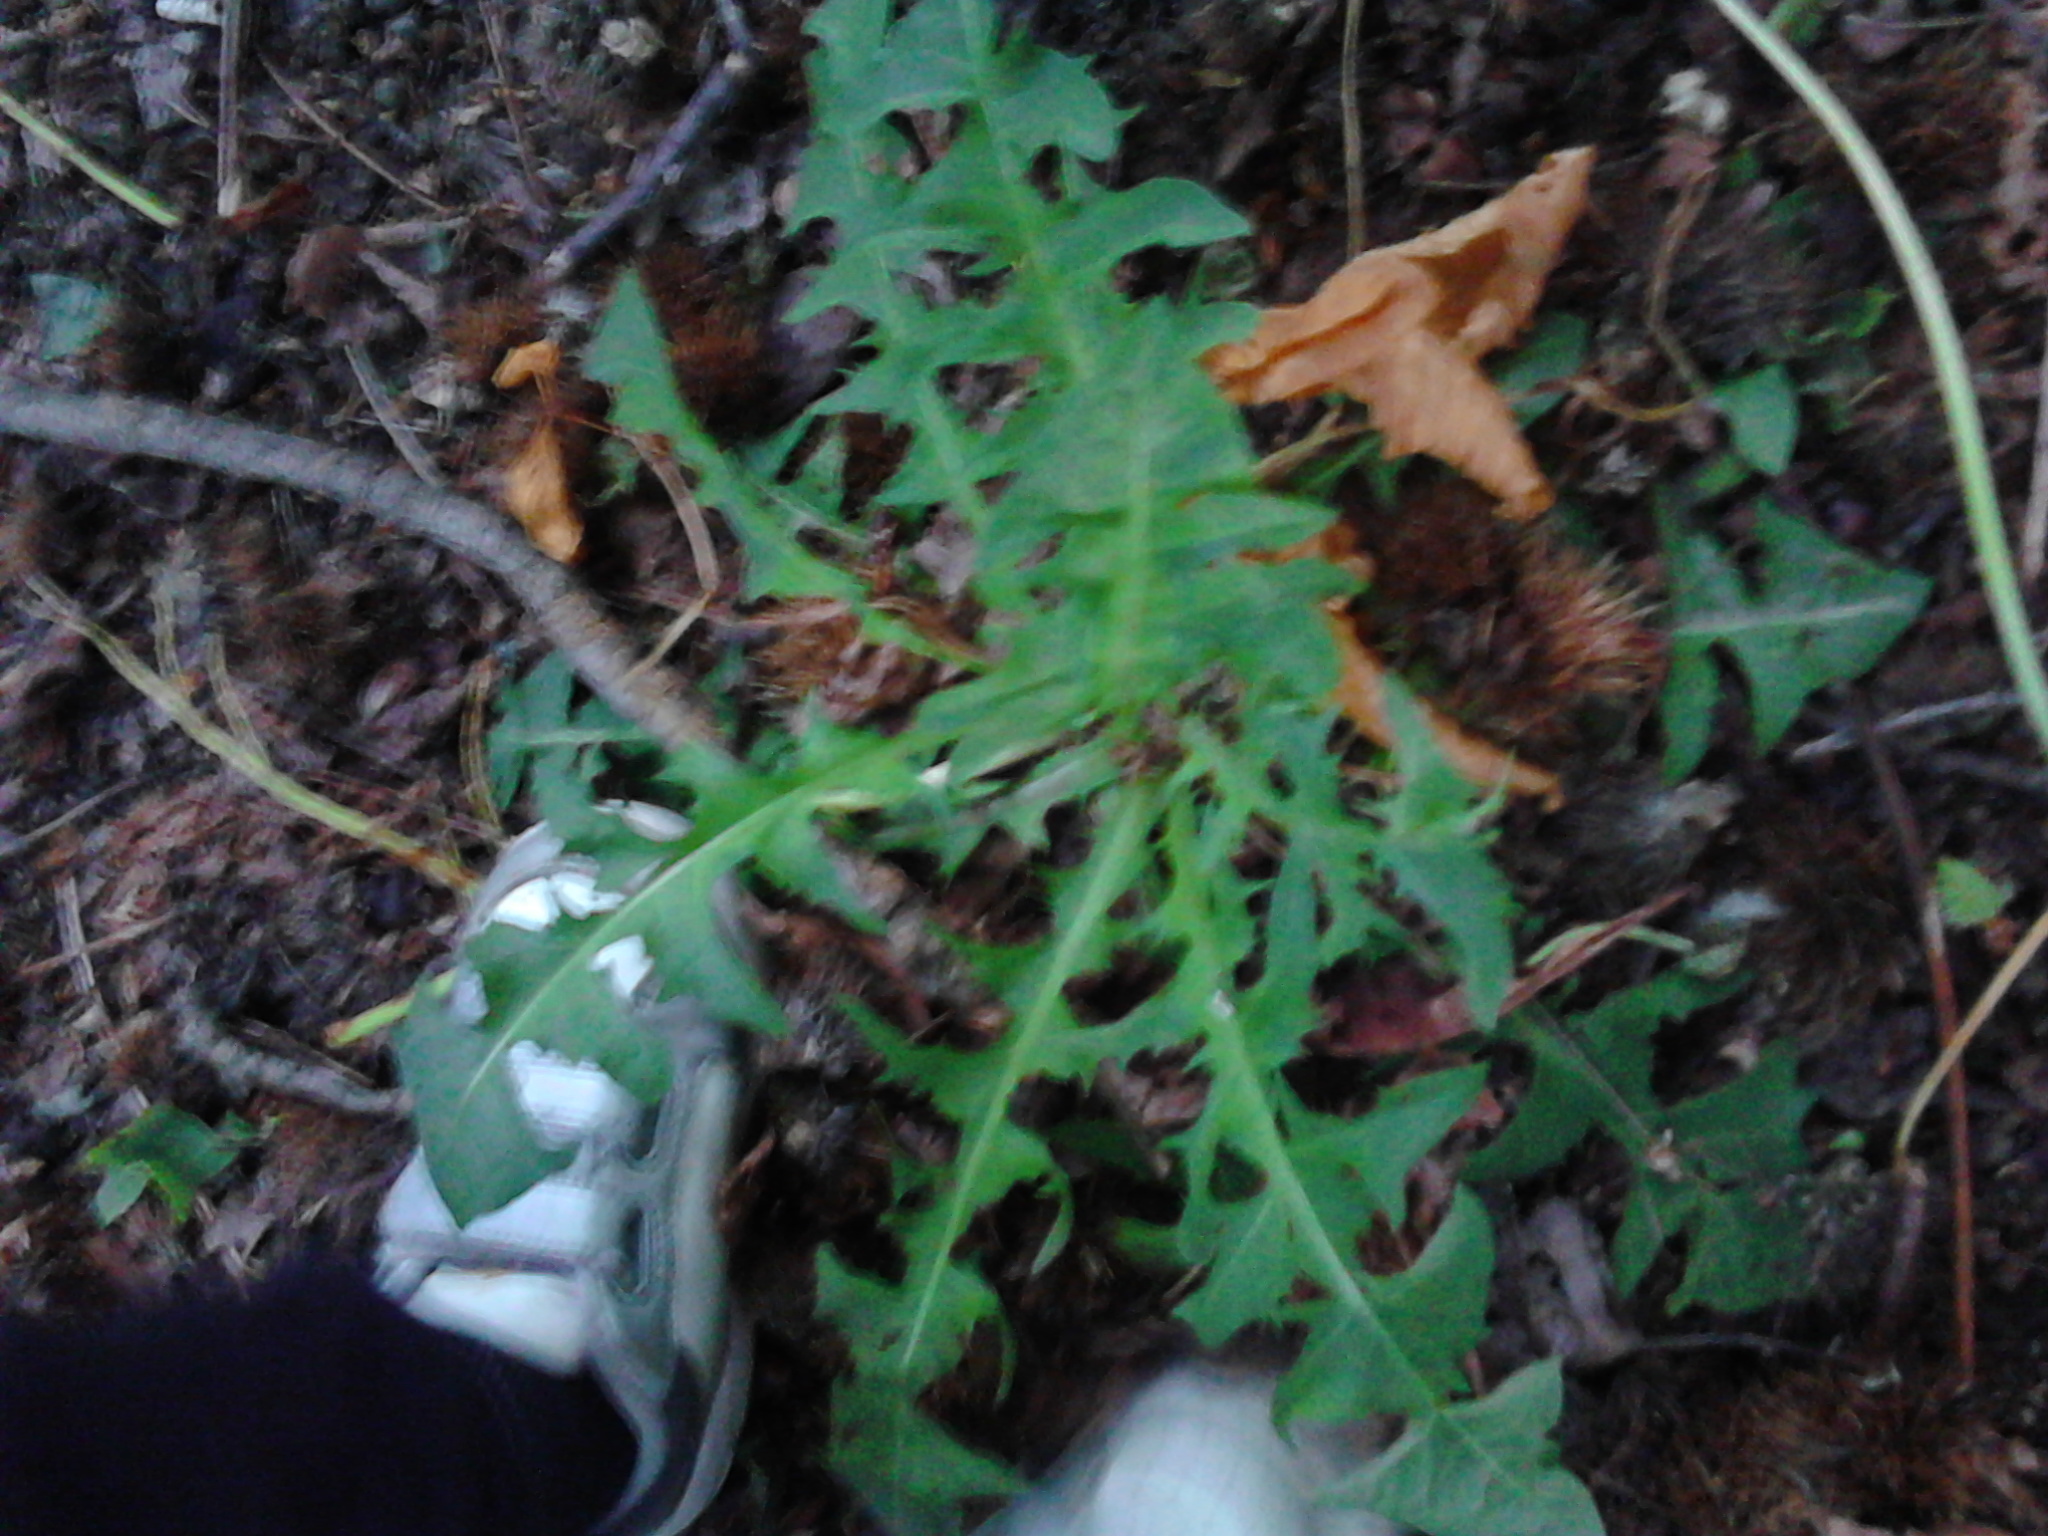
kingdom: Plantae
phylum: Tracheophyta
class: Magnoliopsida
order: Asterales
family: Asteraceae
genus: Taraxacum
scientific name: Taraxacum officinale
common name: Common dandelion
